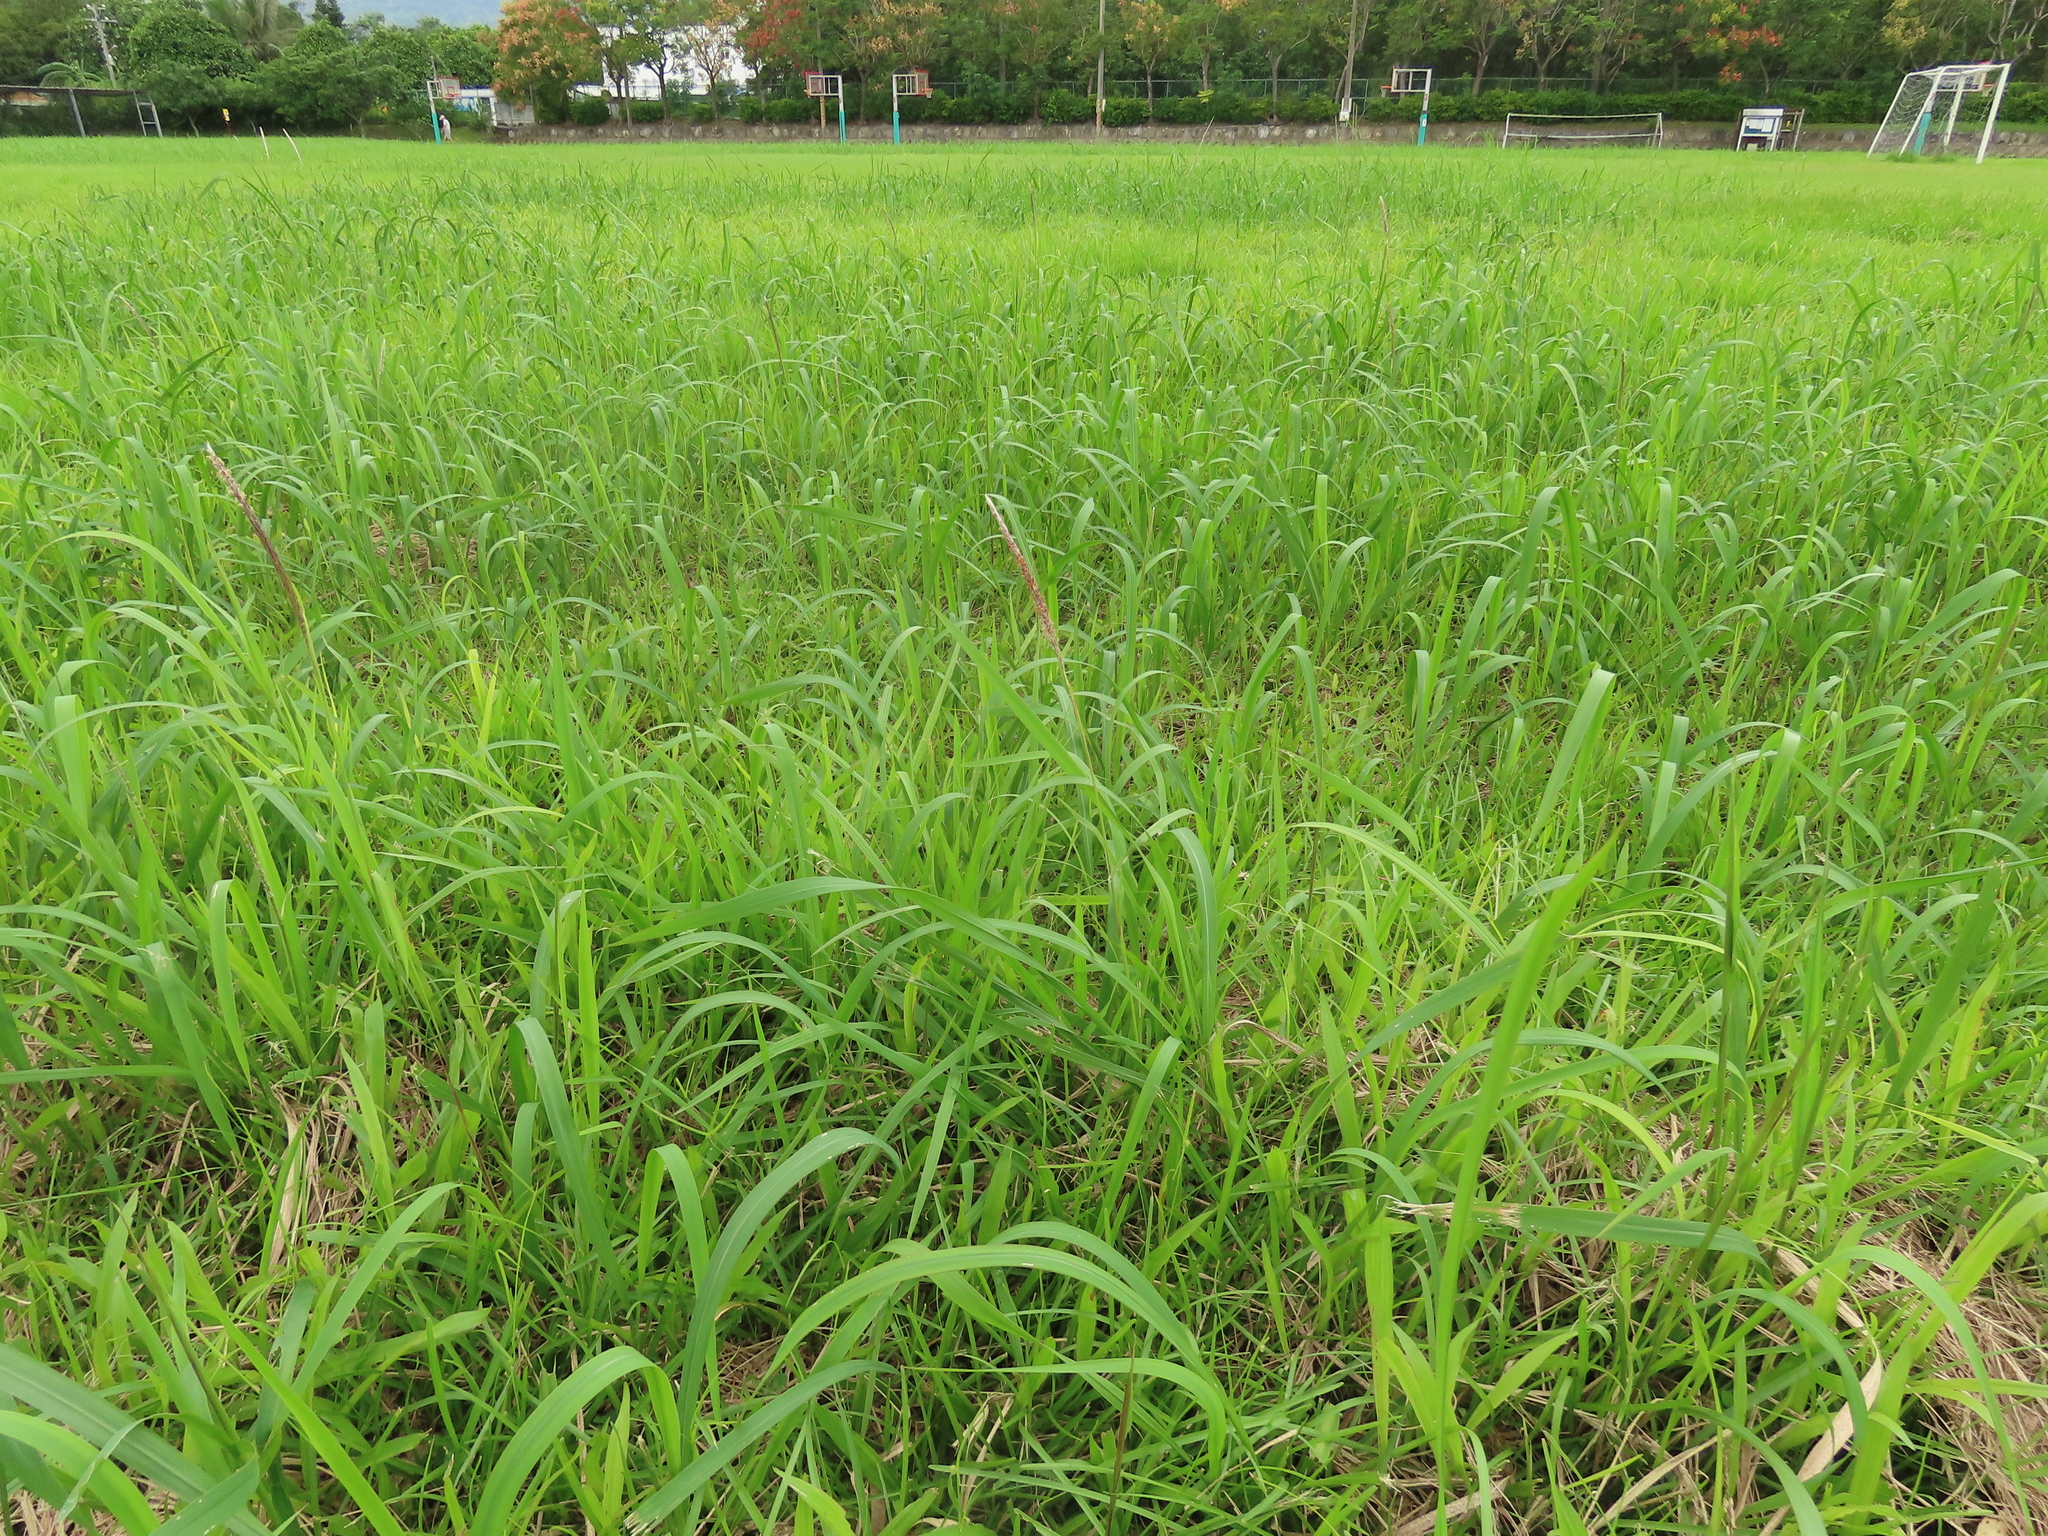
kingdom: Plantae
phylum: Tracheophyta
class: Liliopsida
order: Poales
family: Poaceae
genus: Imperata
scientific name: Imperata cylindrica
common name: Cogongrass
